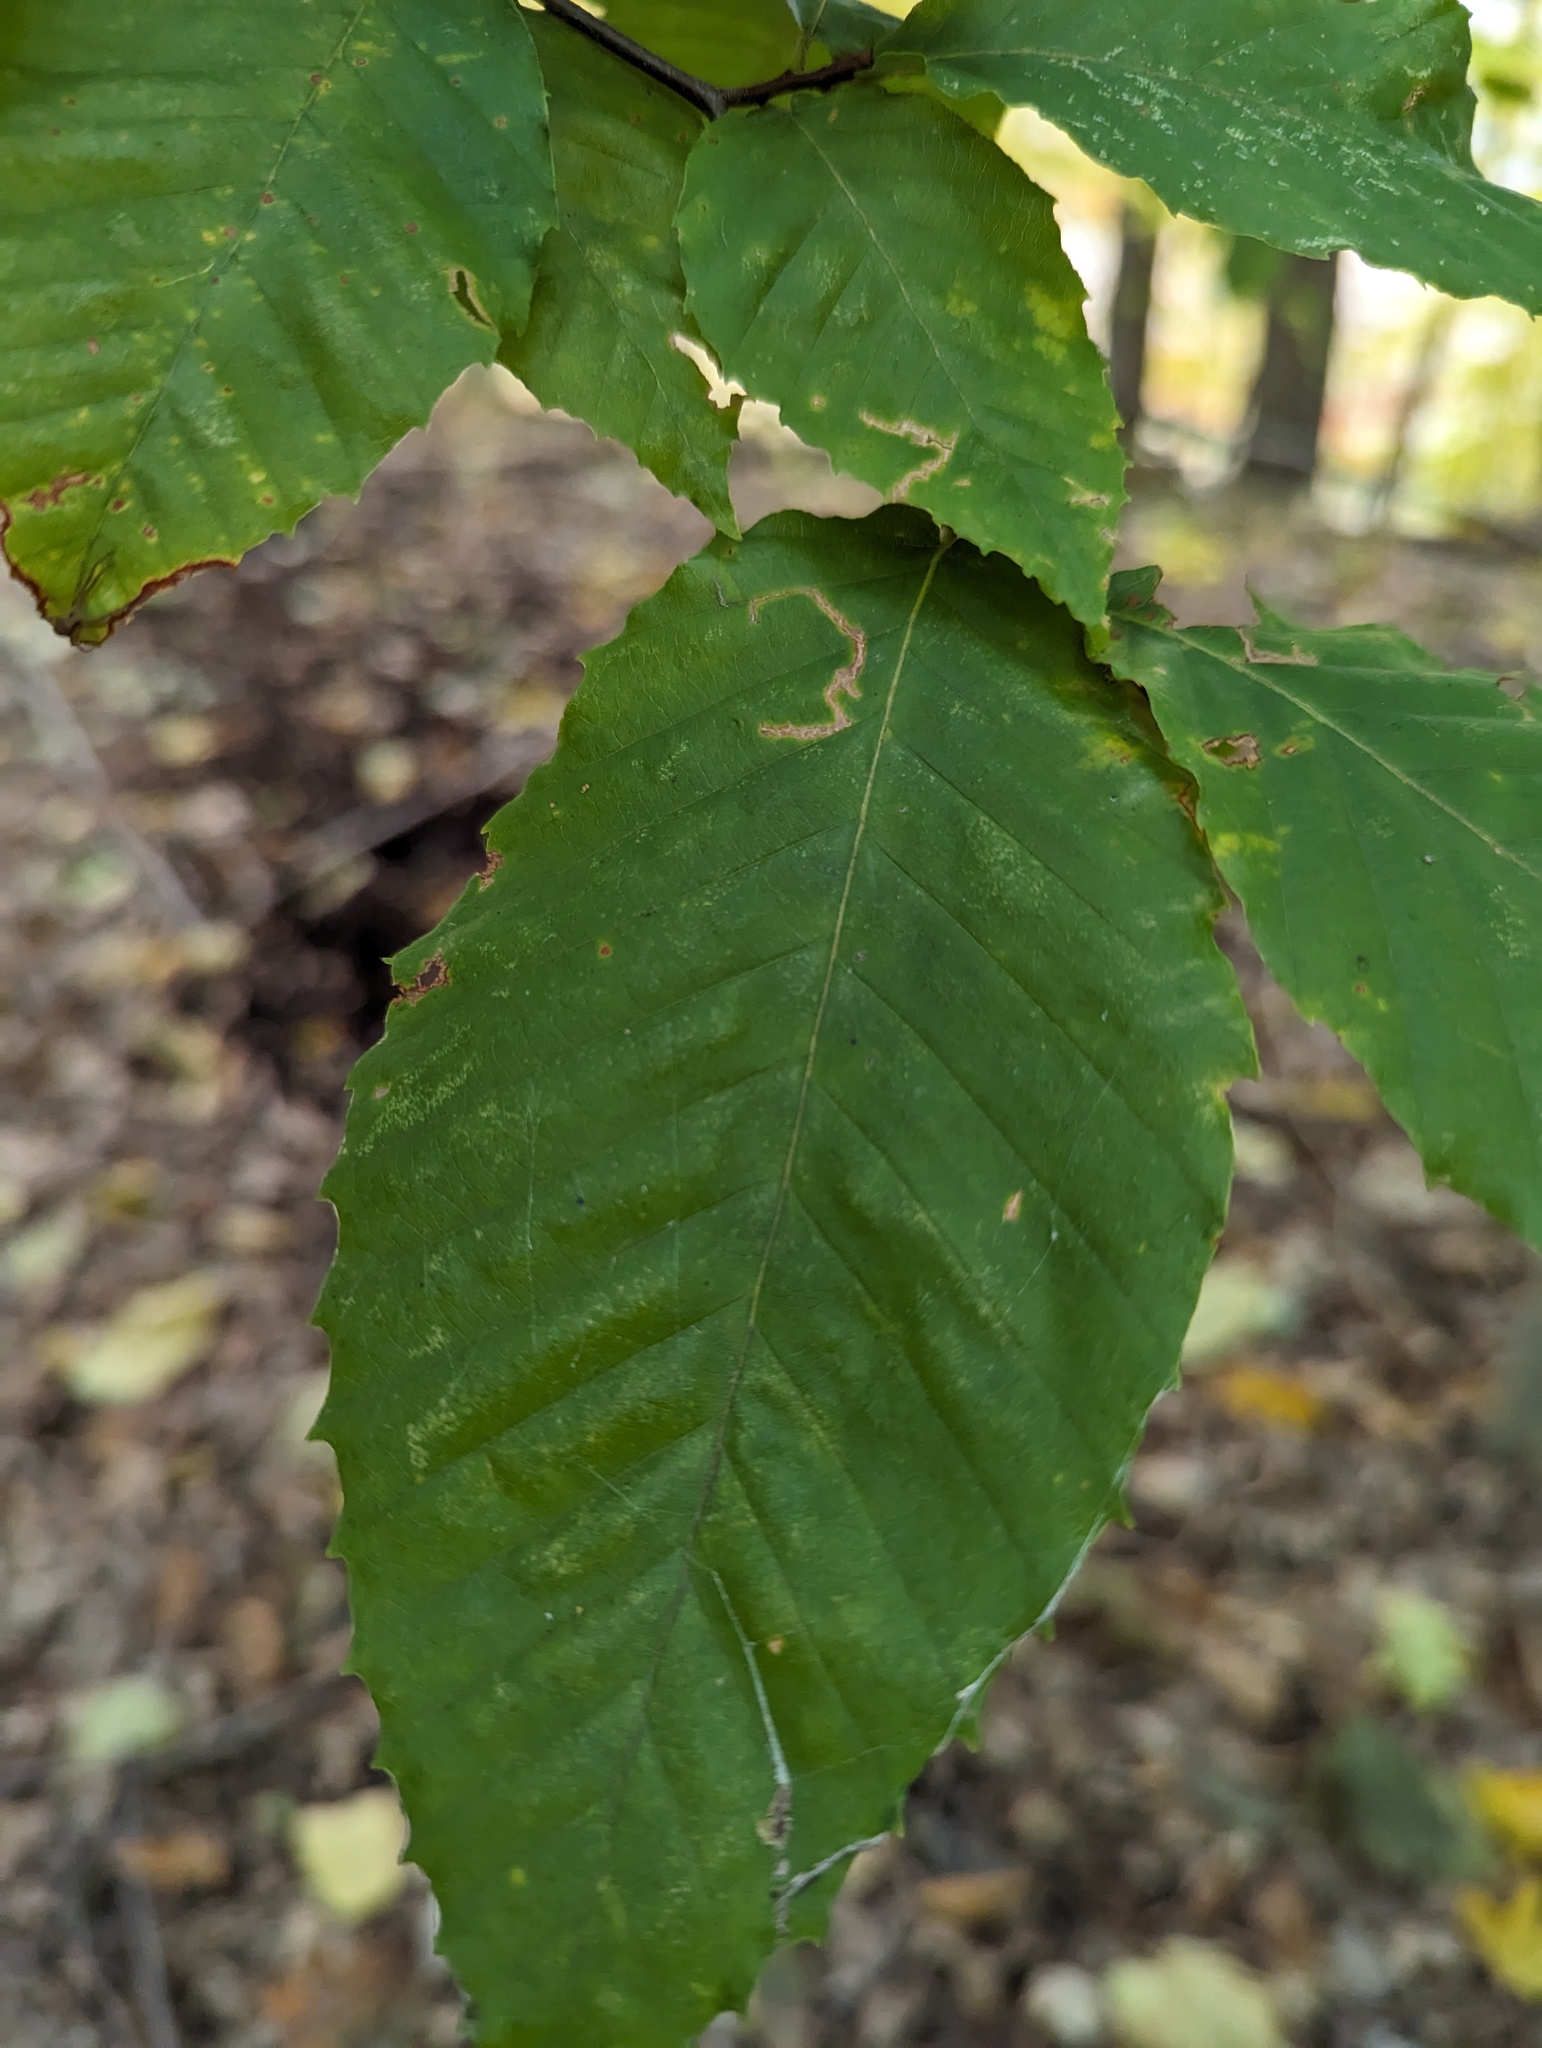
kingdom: Plantae
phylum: Tracheophyta
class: Magnoliopsida
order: Fagales
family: Fagaceae
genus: Fagus
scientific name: Fagus grandifolia
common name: American beech
